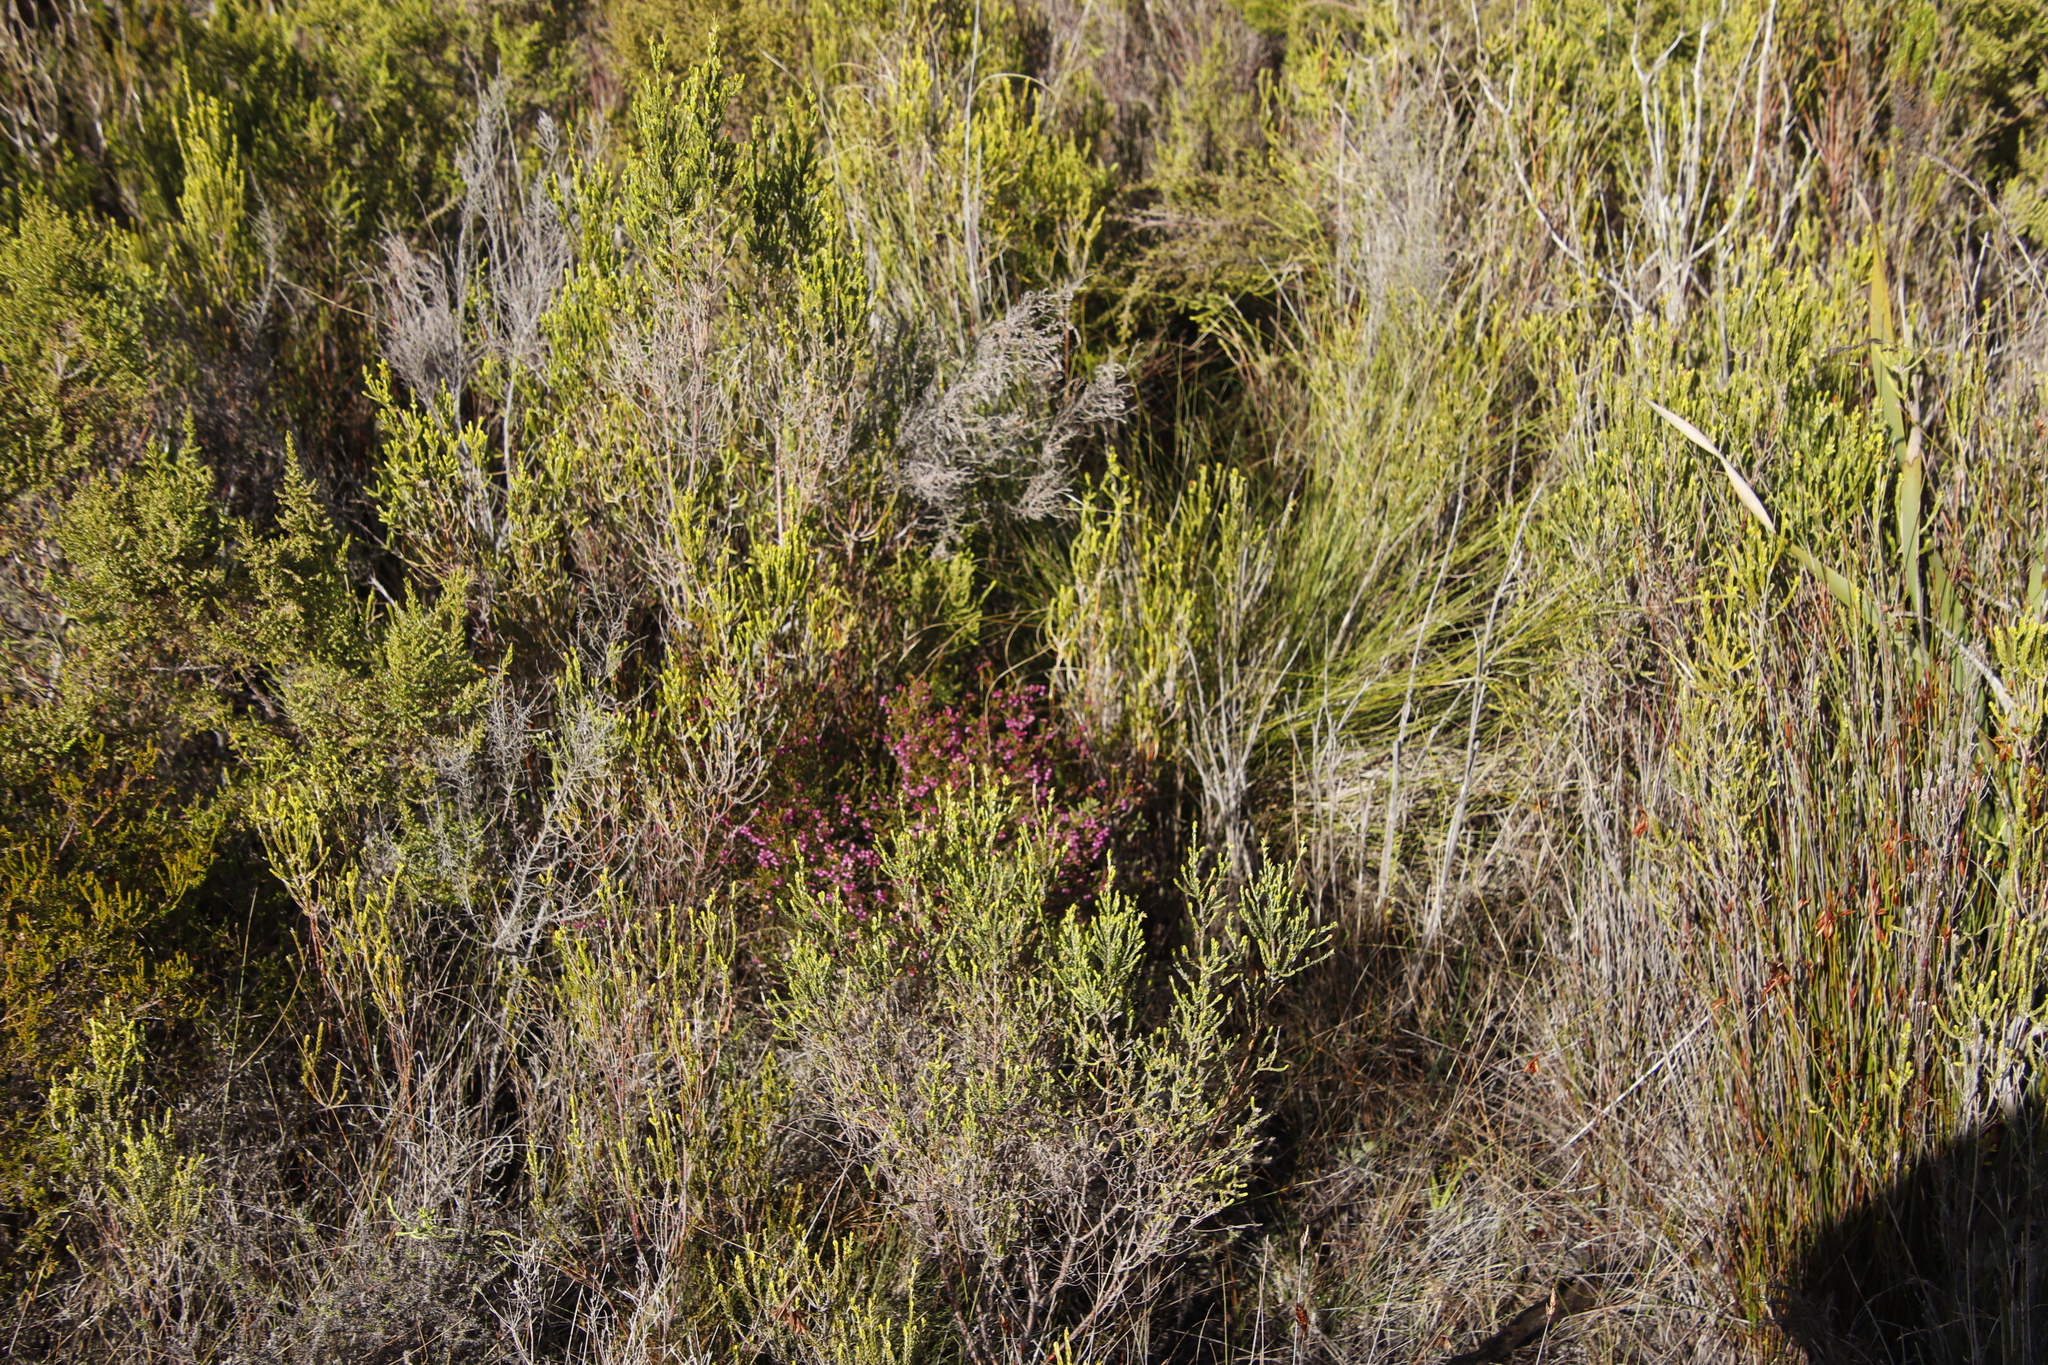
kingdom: Plantae
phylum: Tracheophyta
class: Magnoliopsida
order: Ericales
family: Ericaceae
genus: Erica
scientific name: Erica multumbellifera
